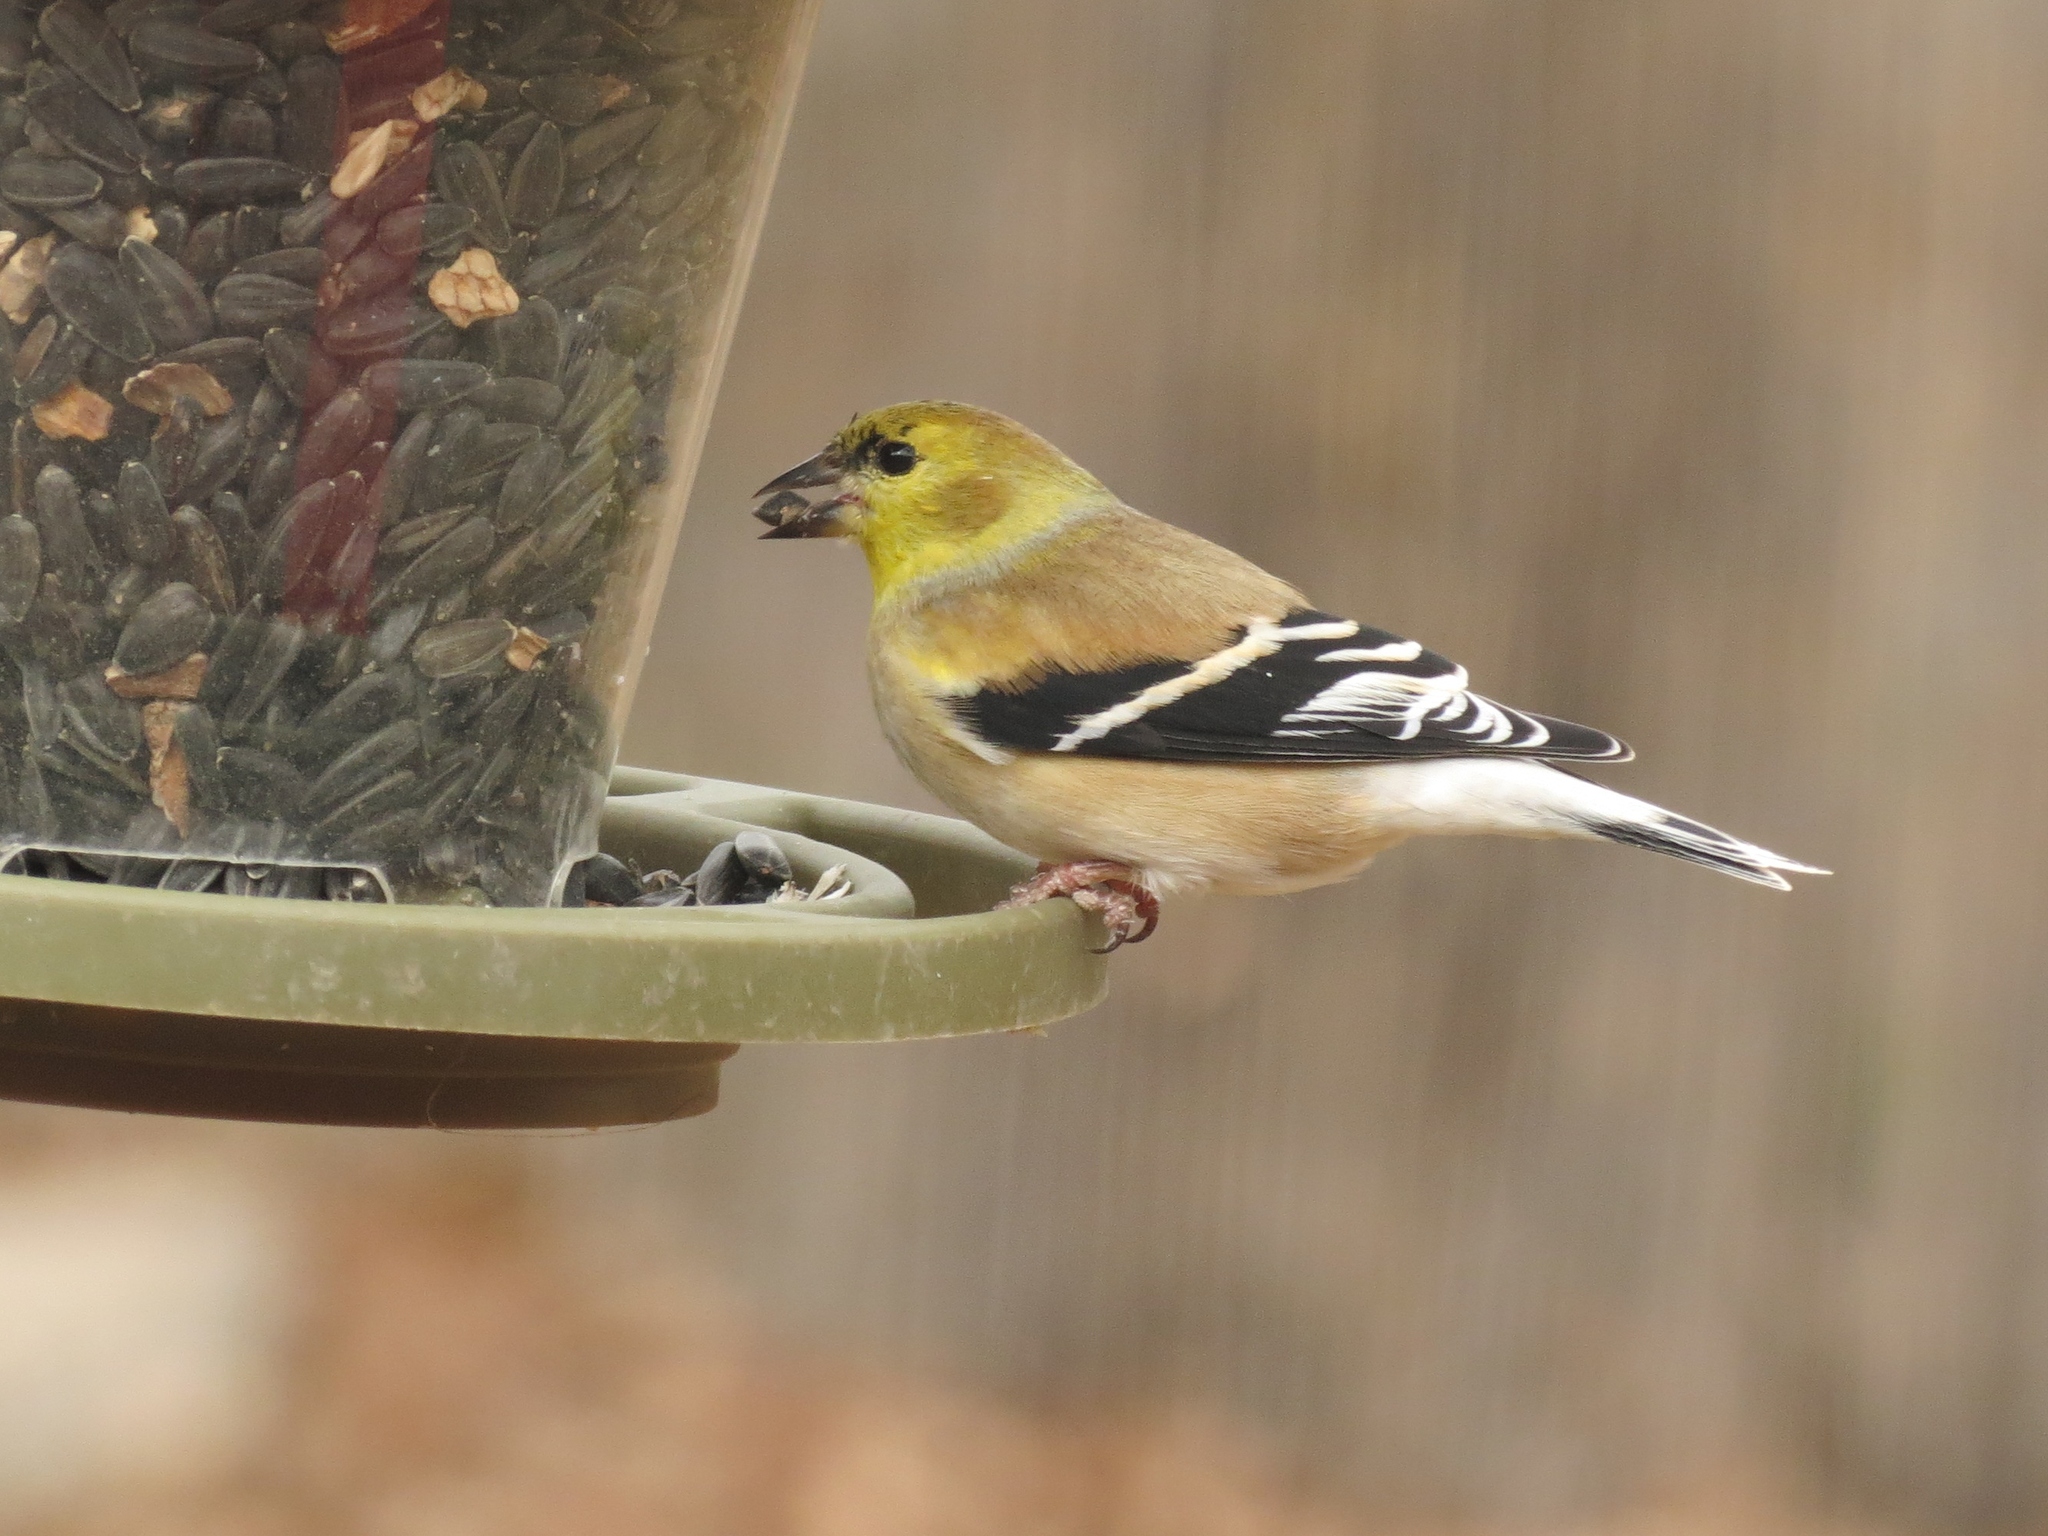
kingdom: Animalia
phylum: Chordata
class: Aves
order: Passeriformes
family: Fringillidae
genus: Spinus
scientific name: Spinus tristis
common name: American goldfinch
